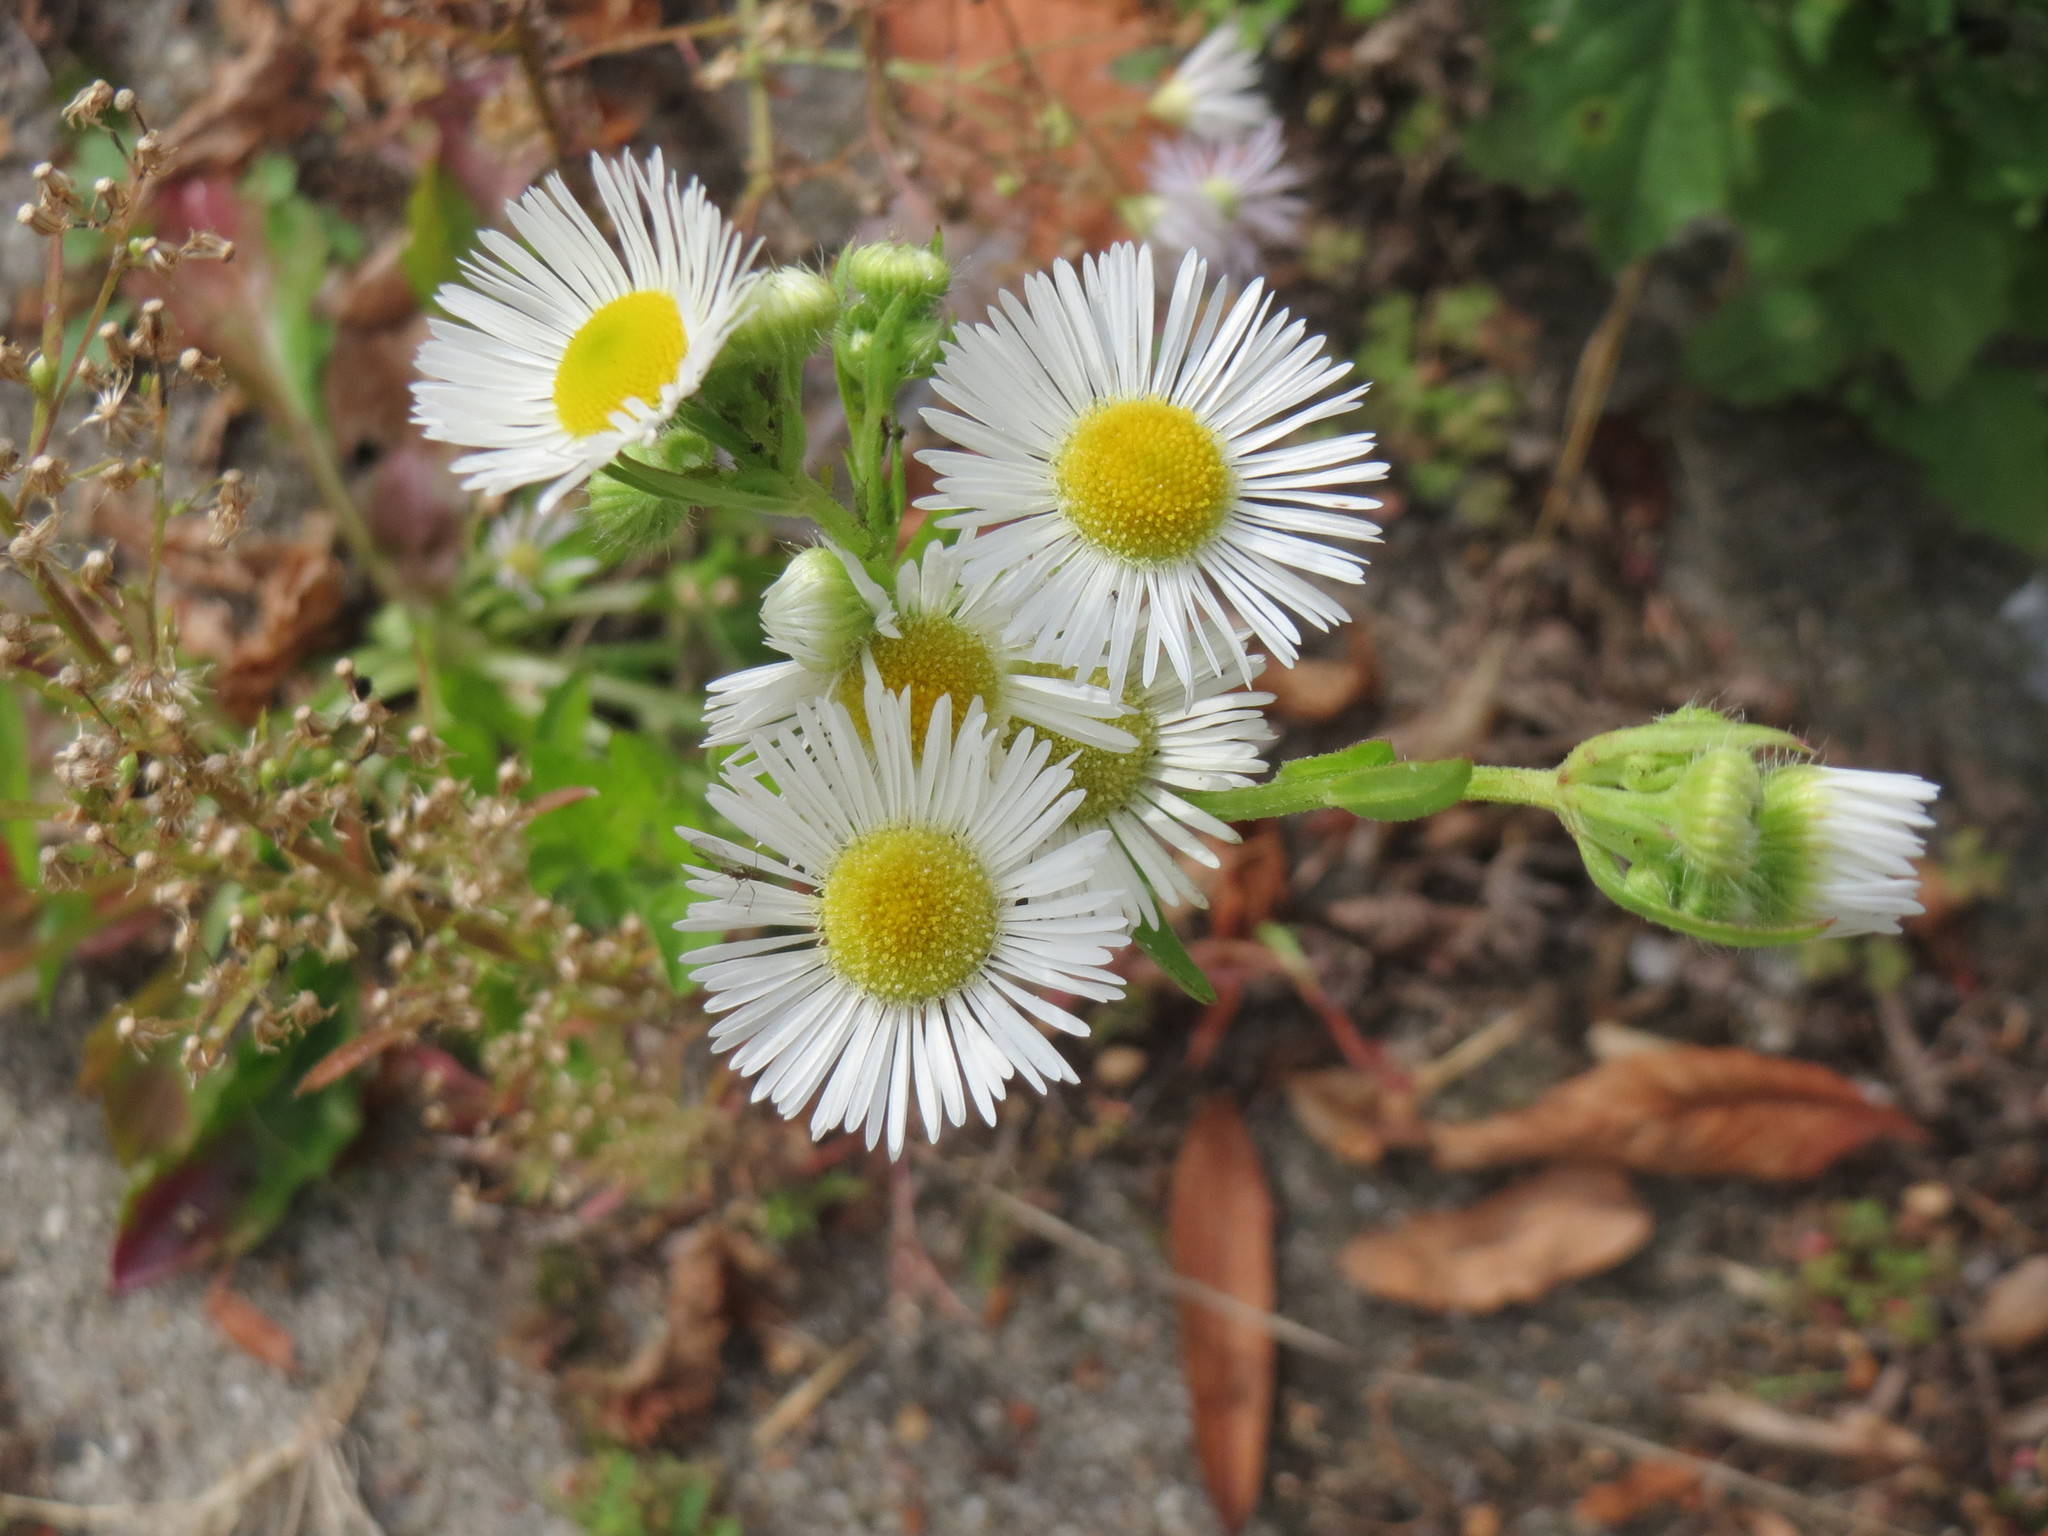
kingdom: Plantae
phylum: Tracheophyta
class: Magnoliopsida
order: Asterales
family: Asteraceae
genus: Erigeron
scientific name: Erigeron annuus
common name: Tall fleabane
